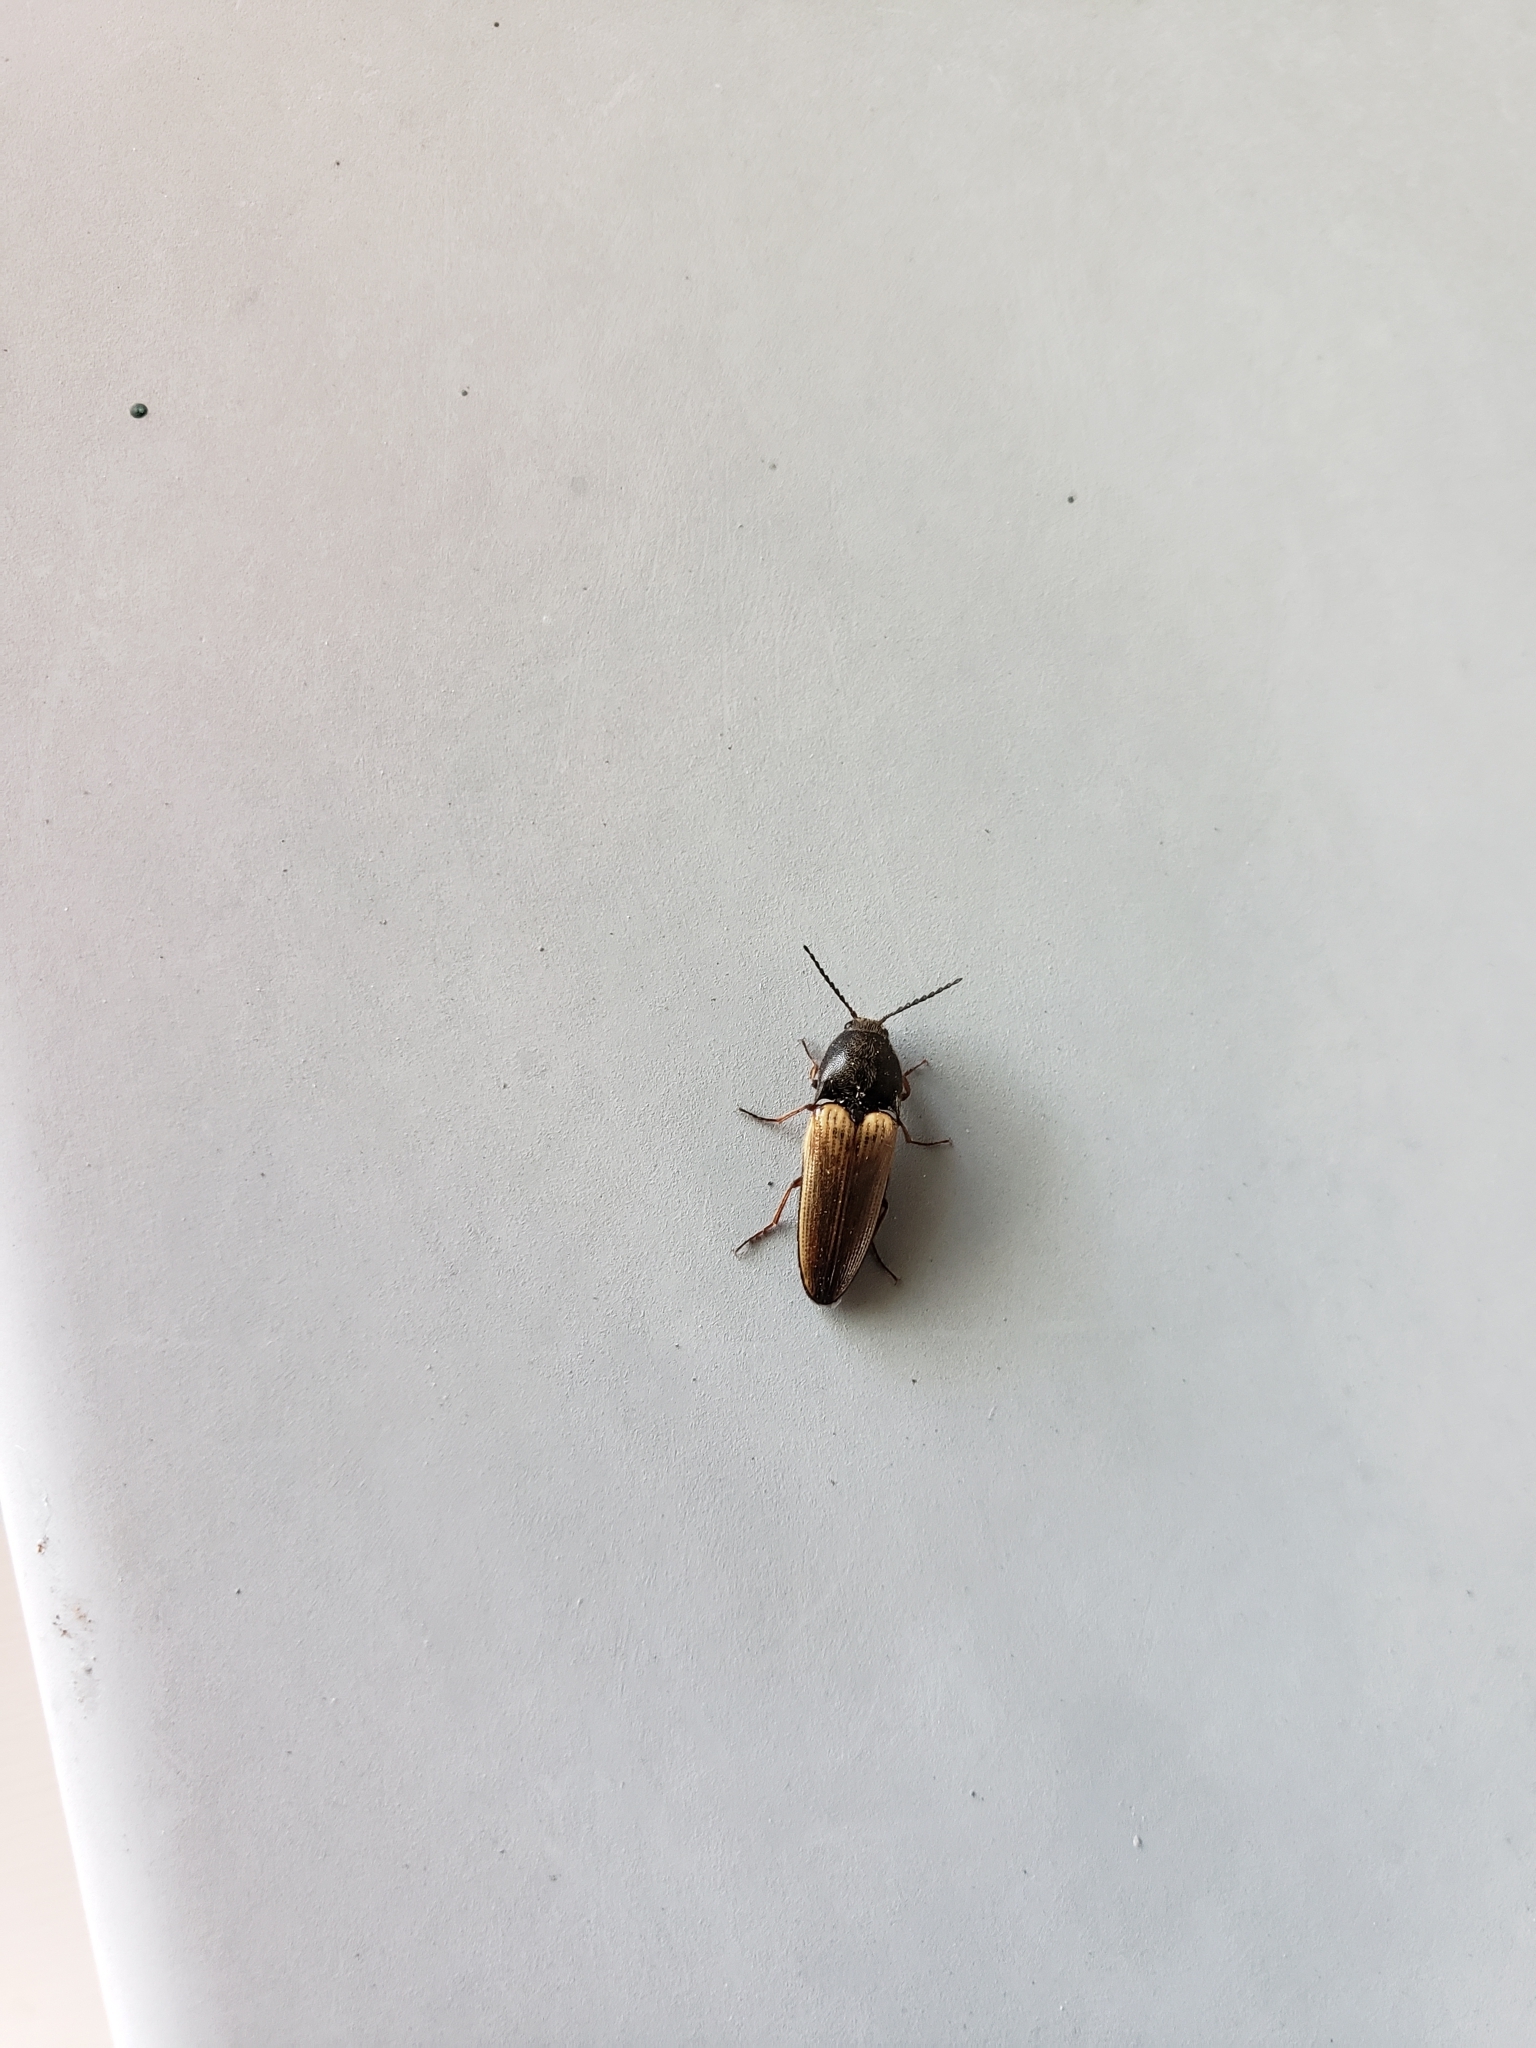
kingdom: Animalia
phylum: Arthropoda
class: Insecta
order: Coleoptera
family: Elateridae
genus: Ampedus
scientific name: Ampedus nigricollis
